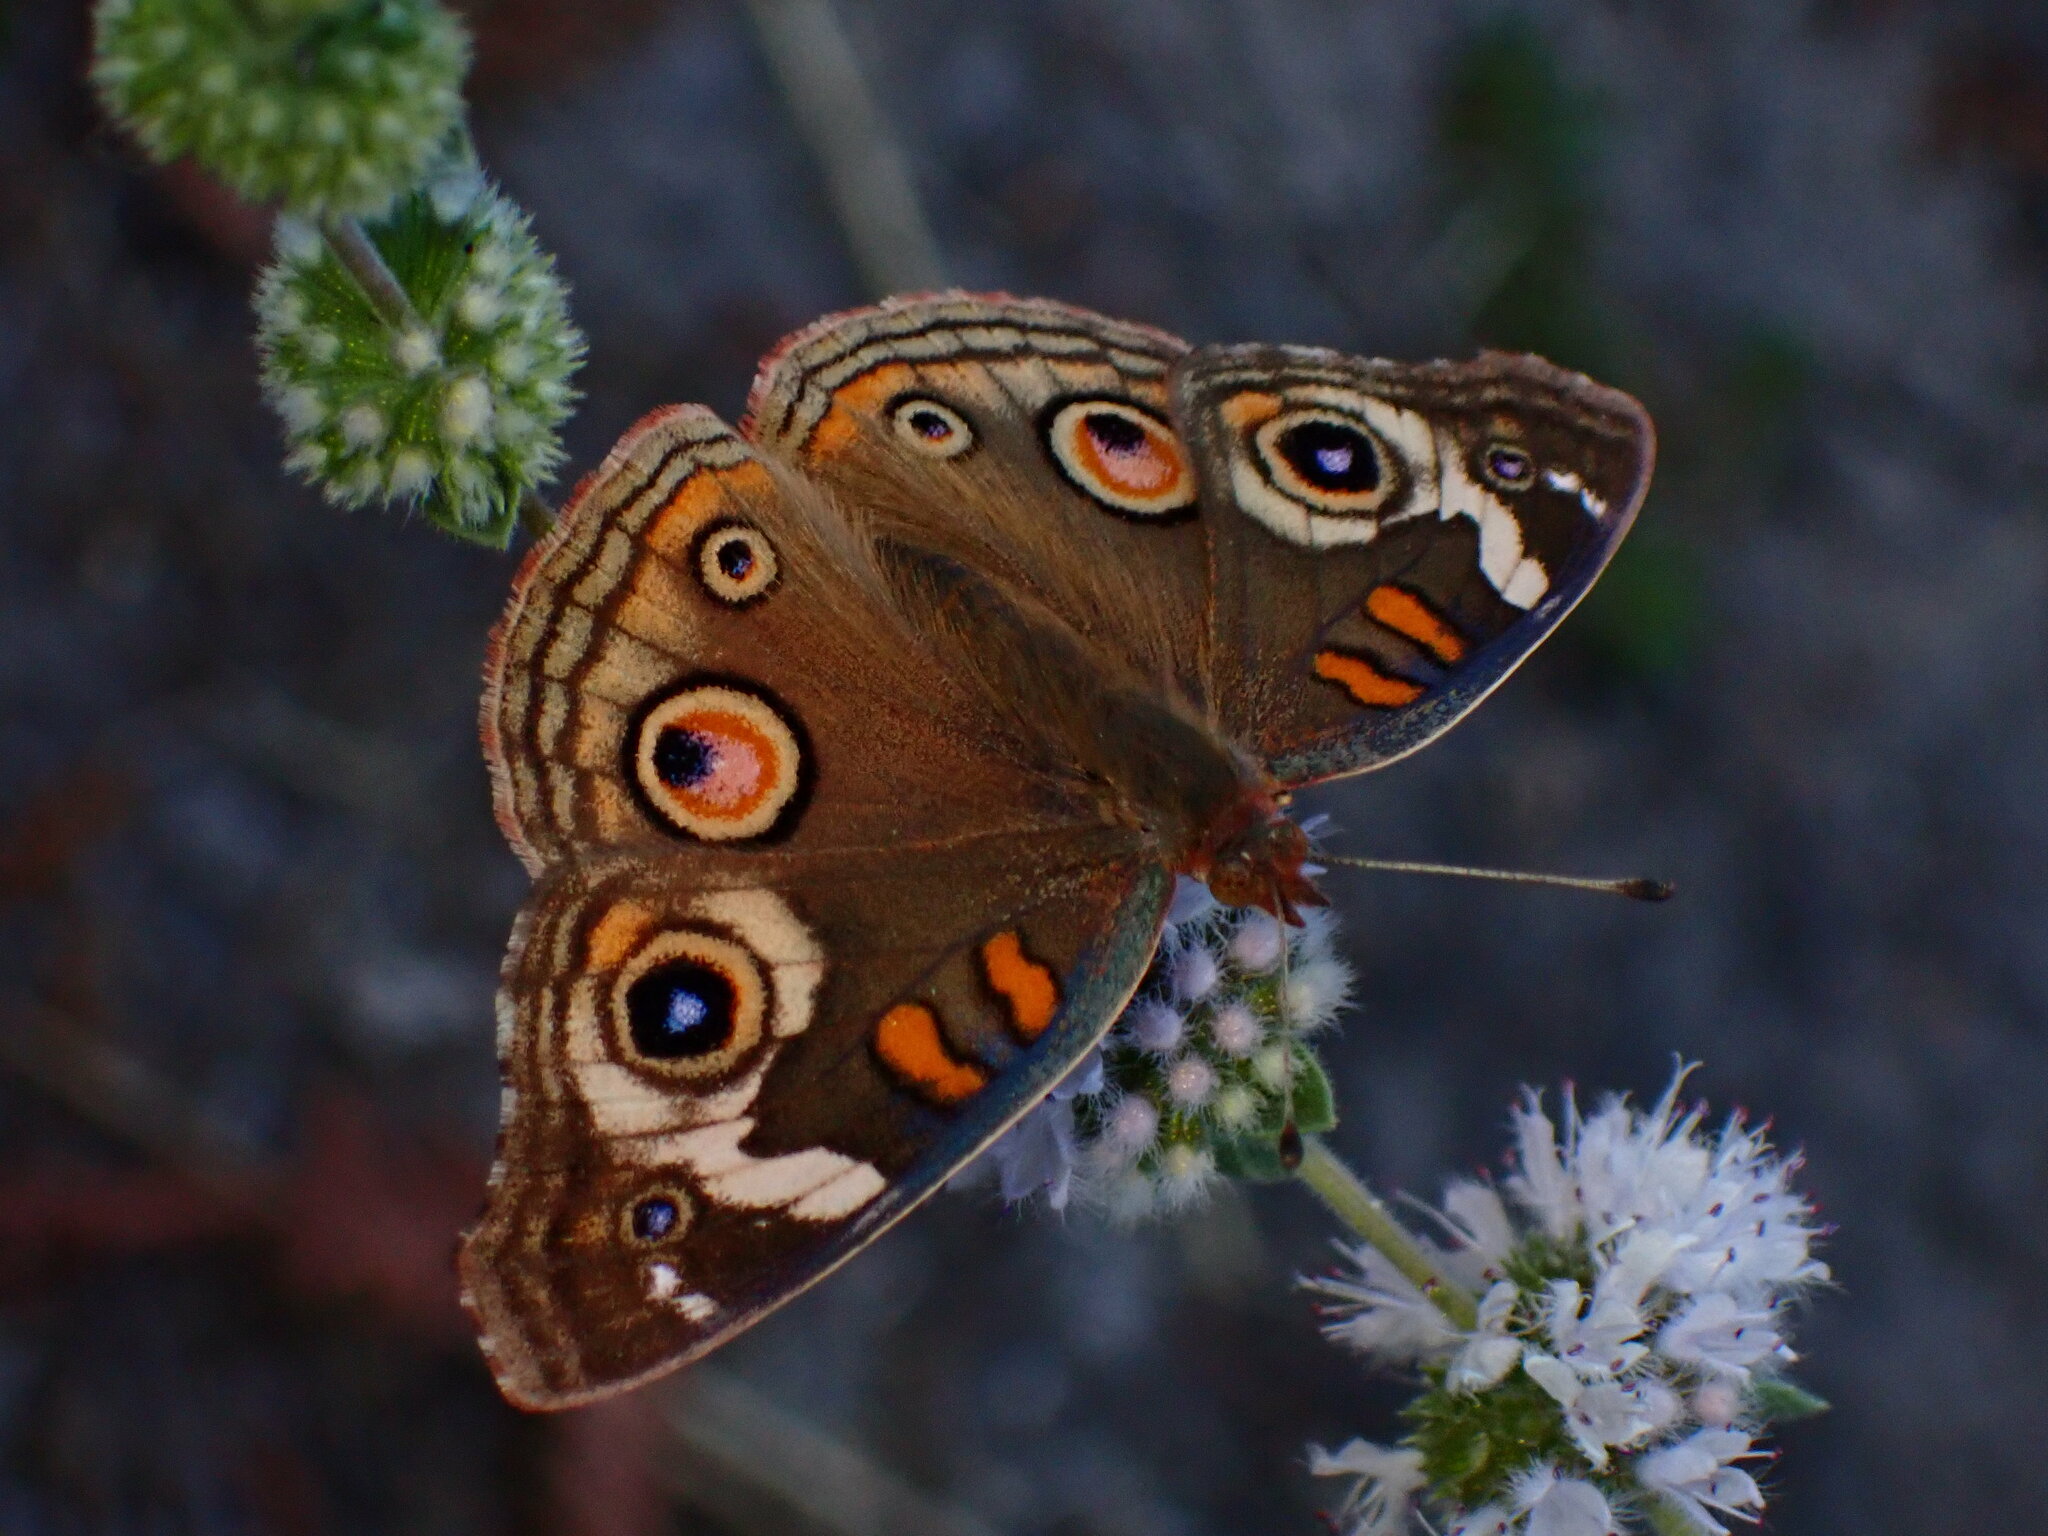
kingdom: Animalia
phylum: Arthropoda
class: Insecta
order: Lepidoptera
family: Nymphalidae
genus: Junonia
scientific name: Junonia grisea
